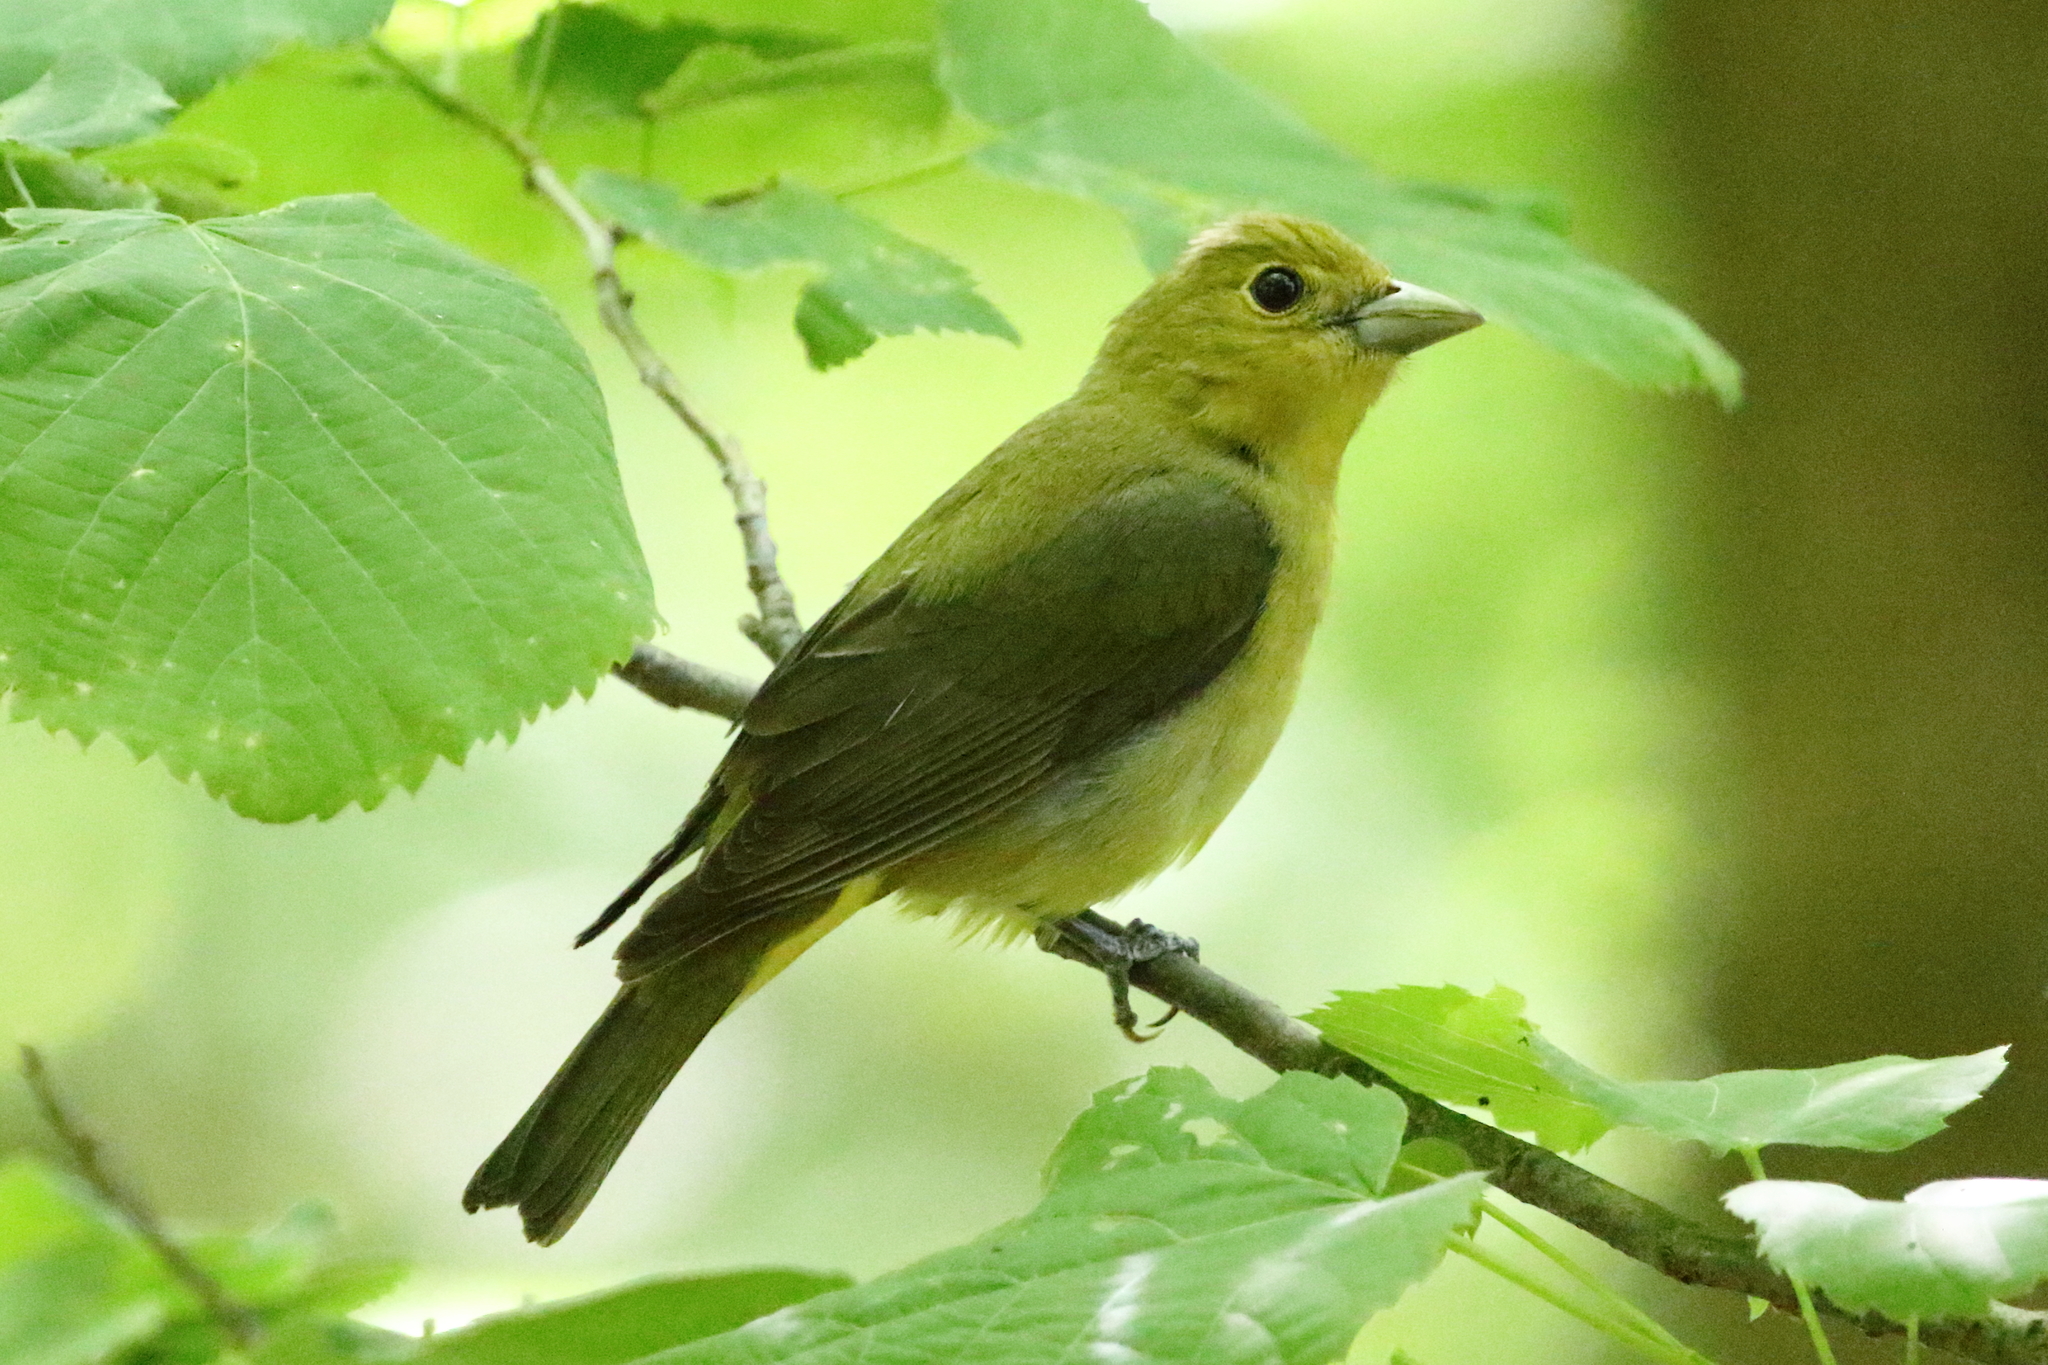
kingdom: Animalia
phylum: Chordata
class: Aves
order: Passeriformes
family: Cardinalidae
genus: Piranga
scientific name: Piranga olivacea
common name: Scarlet tanager
